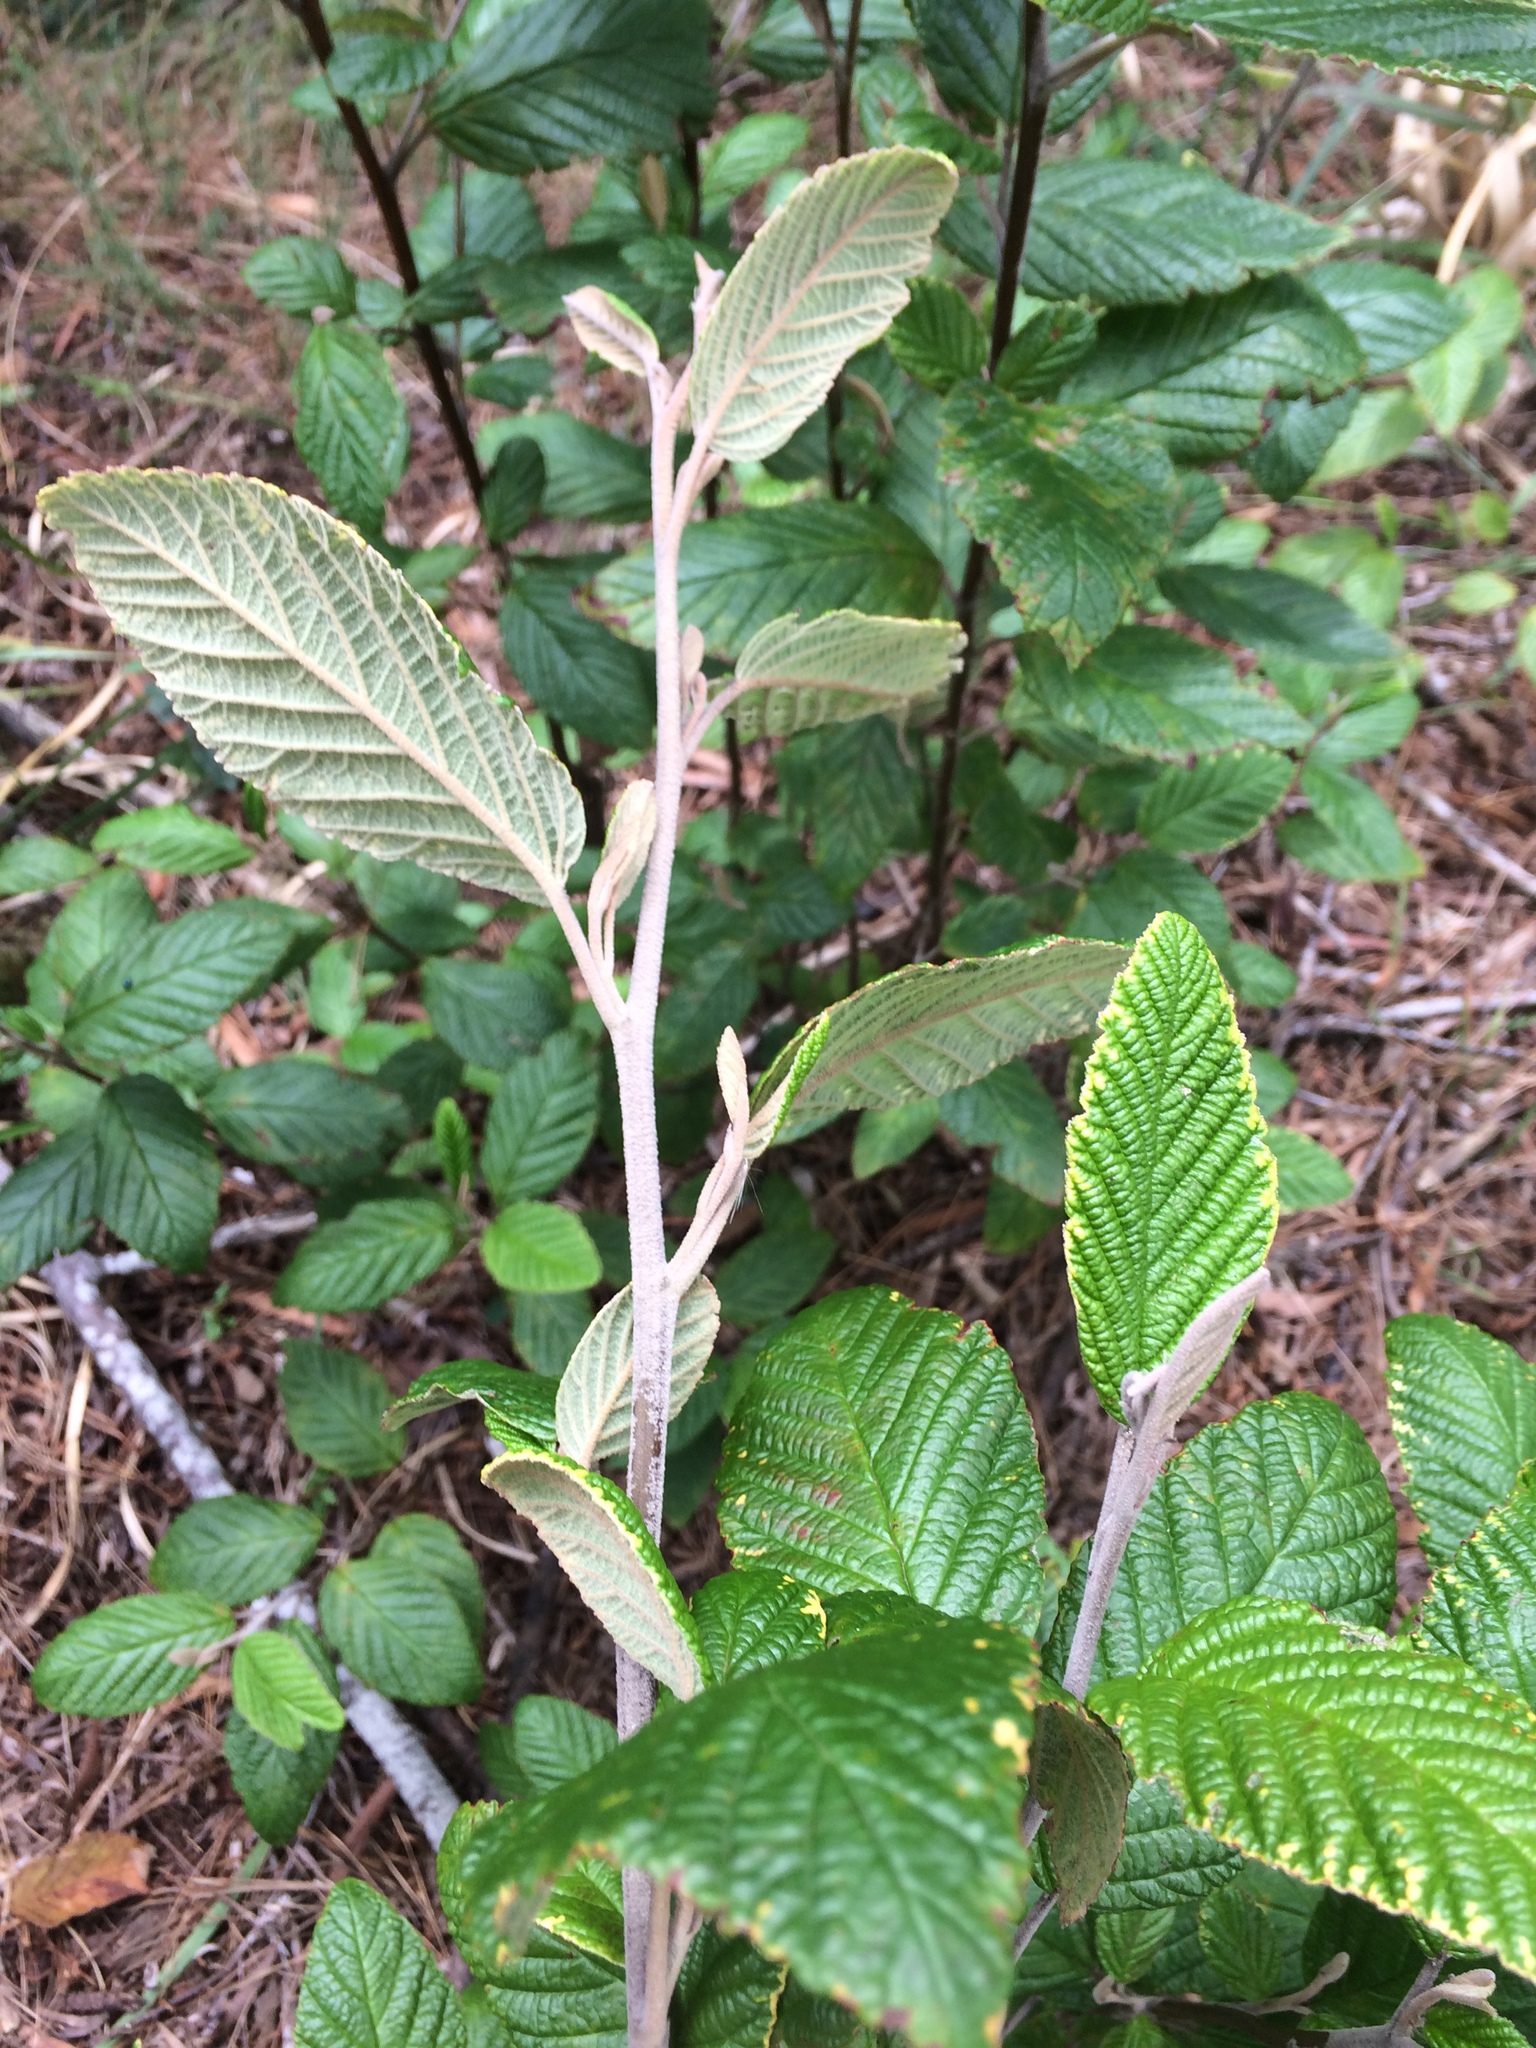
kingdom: Plantae
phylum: Tracheophyta
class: Magnoliopsida
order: Rosales
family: Rhamnaceae
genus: Pomaderris
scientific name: Pomaderris aspera
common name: Hazel pomaderris
